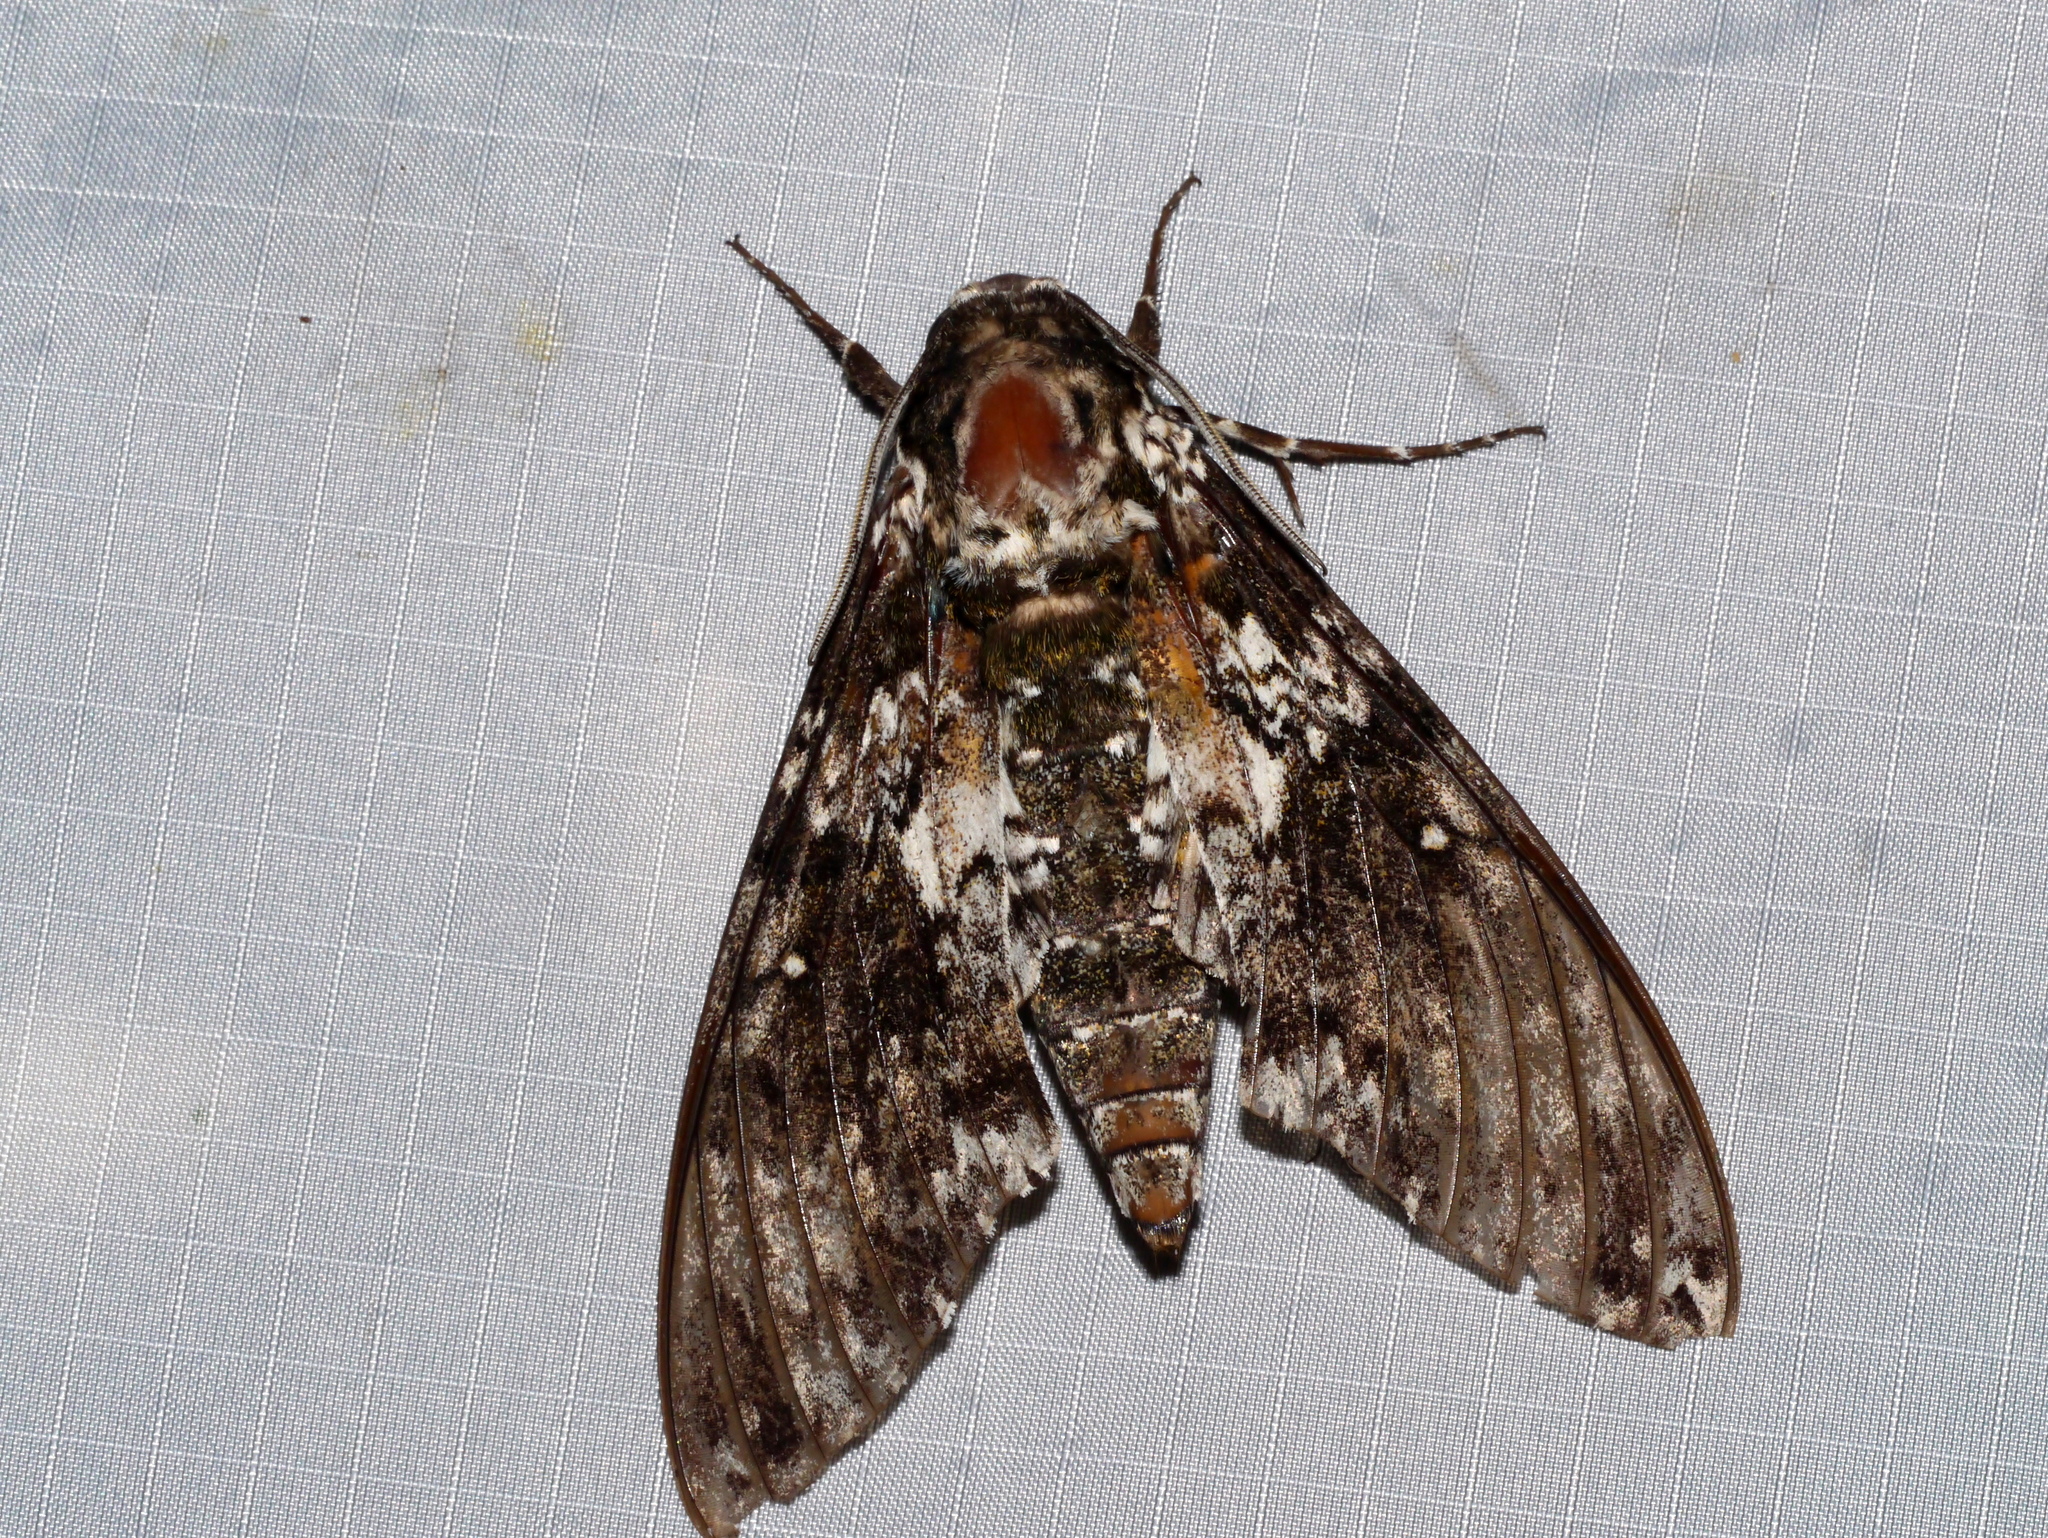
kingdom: Animalia
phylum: Arthropoda
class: Insecta
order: Lepidoptera
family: Sphingidae
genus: Manduca
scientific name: Manduca rustica
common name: Rustic sphinx
